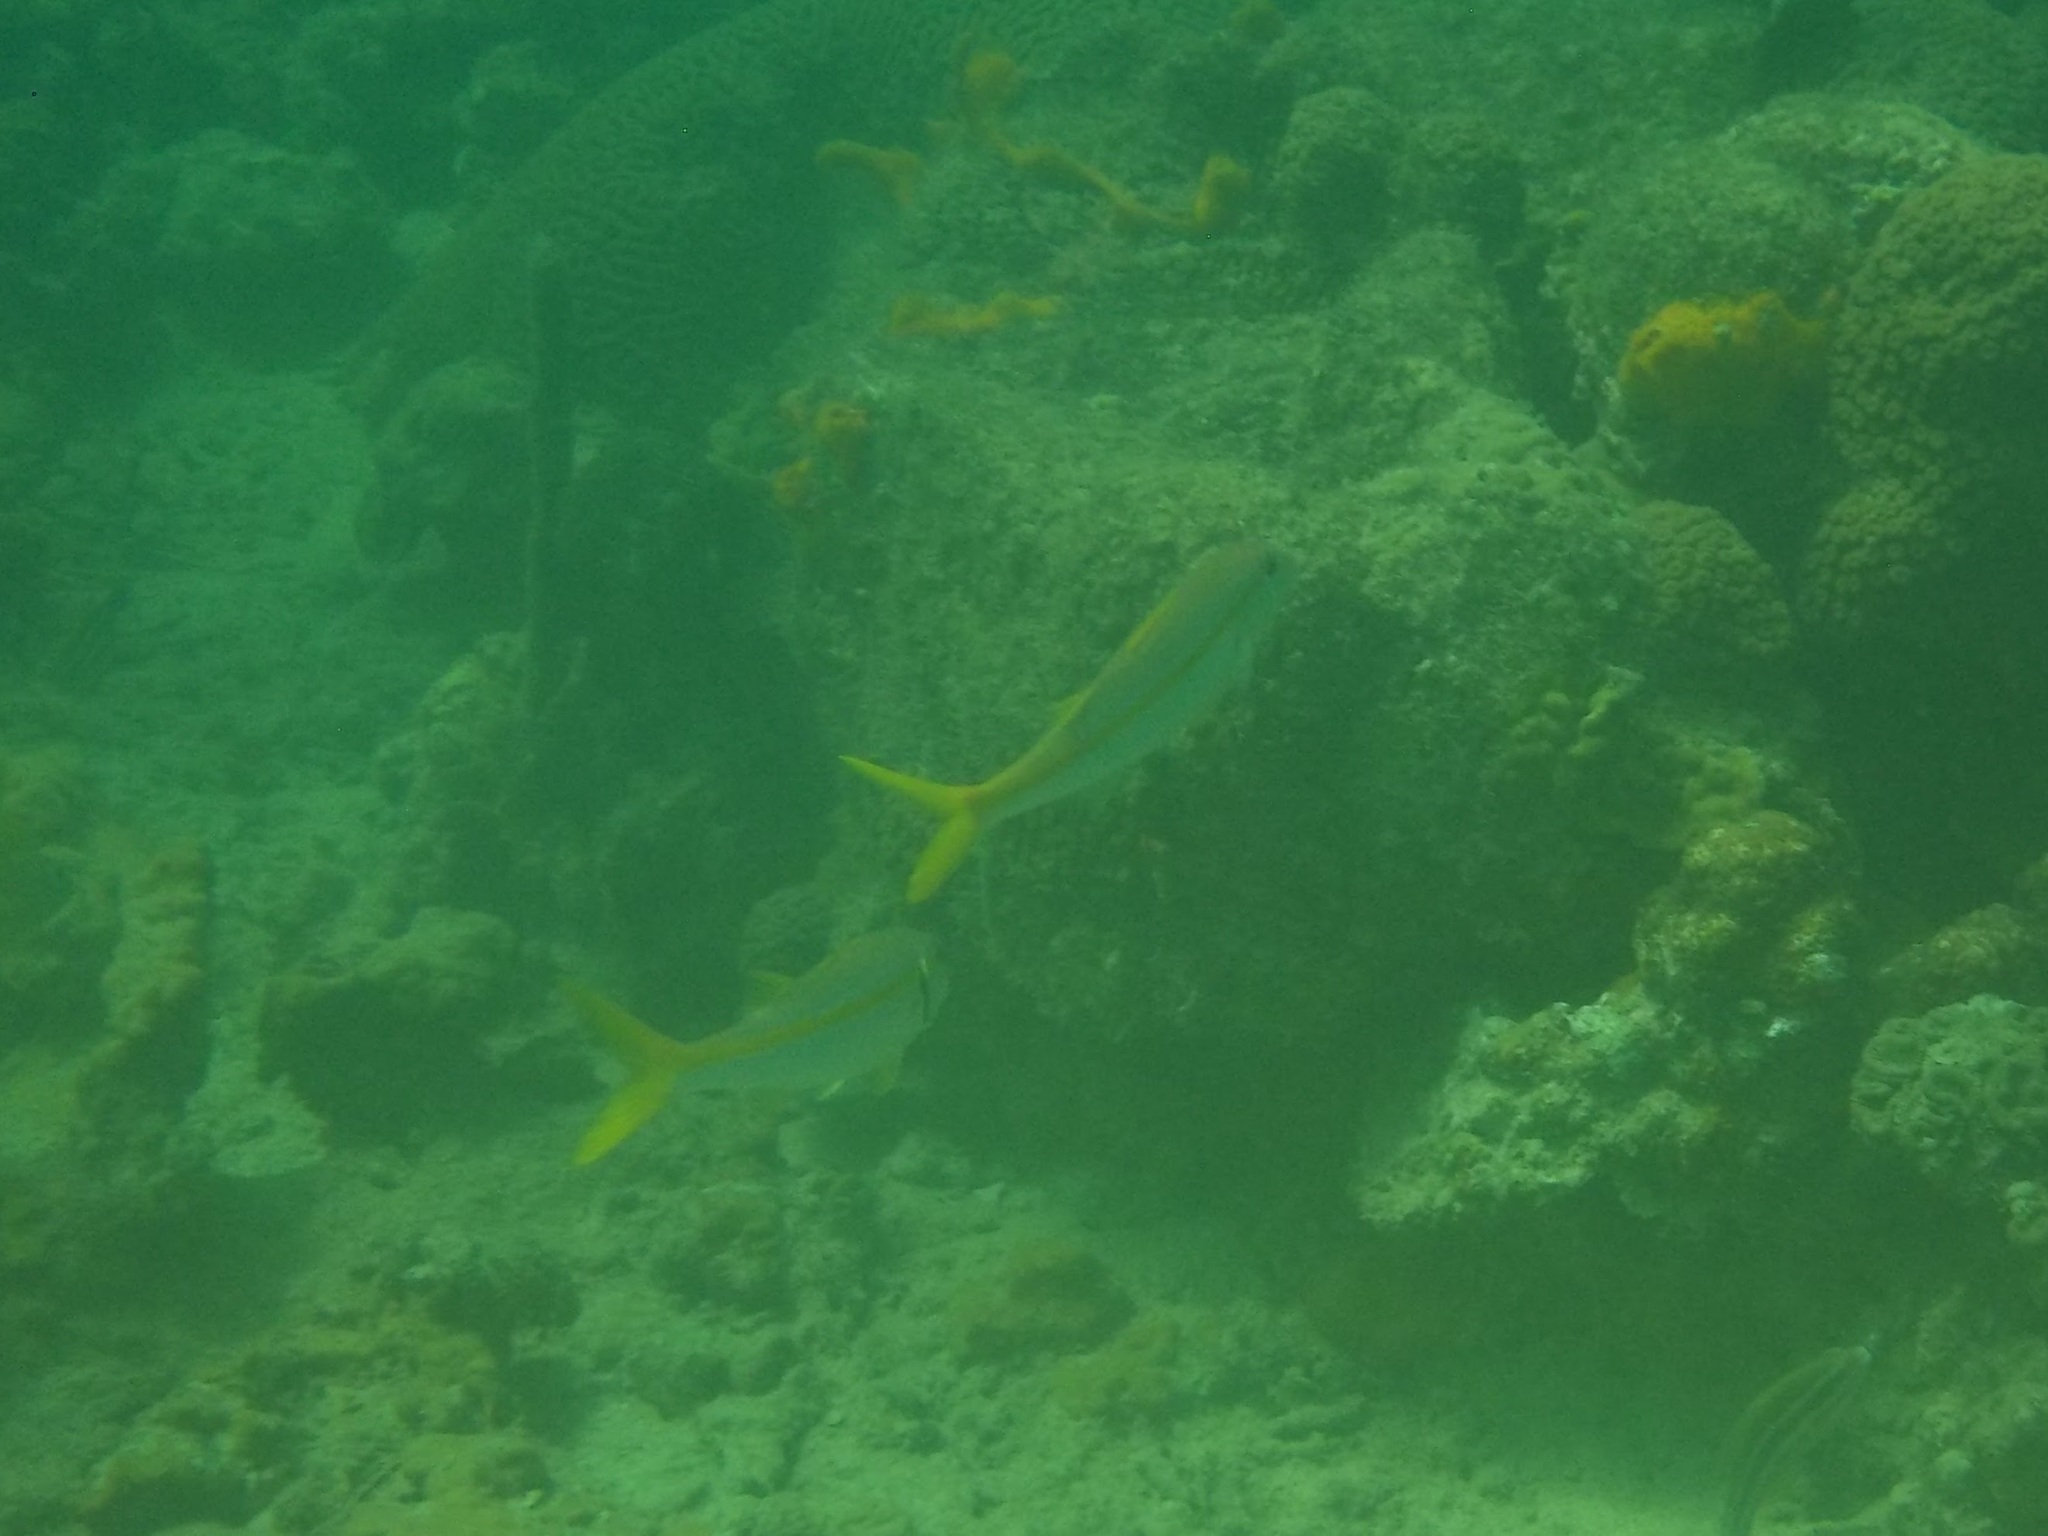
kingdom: Animalia
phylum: Chordata
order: Perciformes
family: Mullidae
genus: Mulloidichthys
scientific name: Mulloidichthys martinicus
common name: Yellow goatfish
